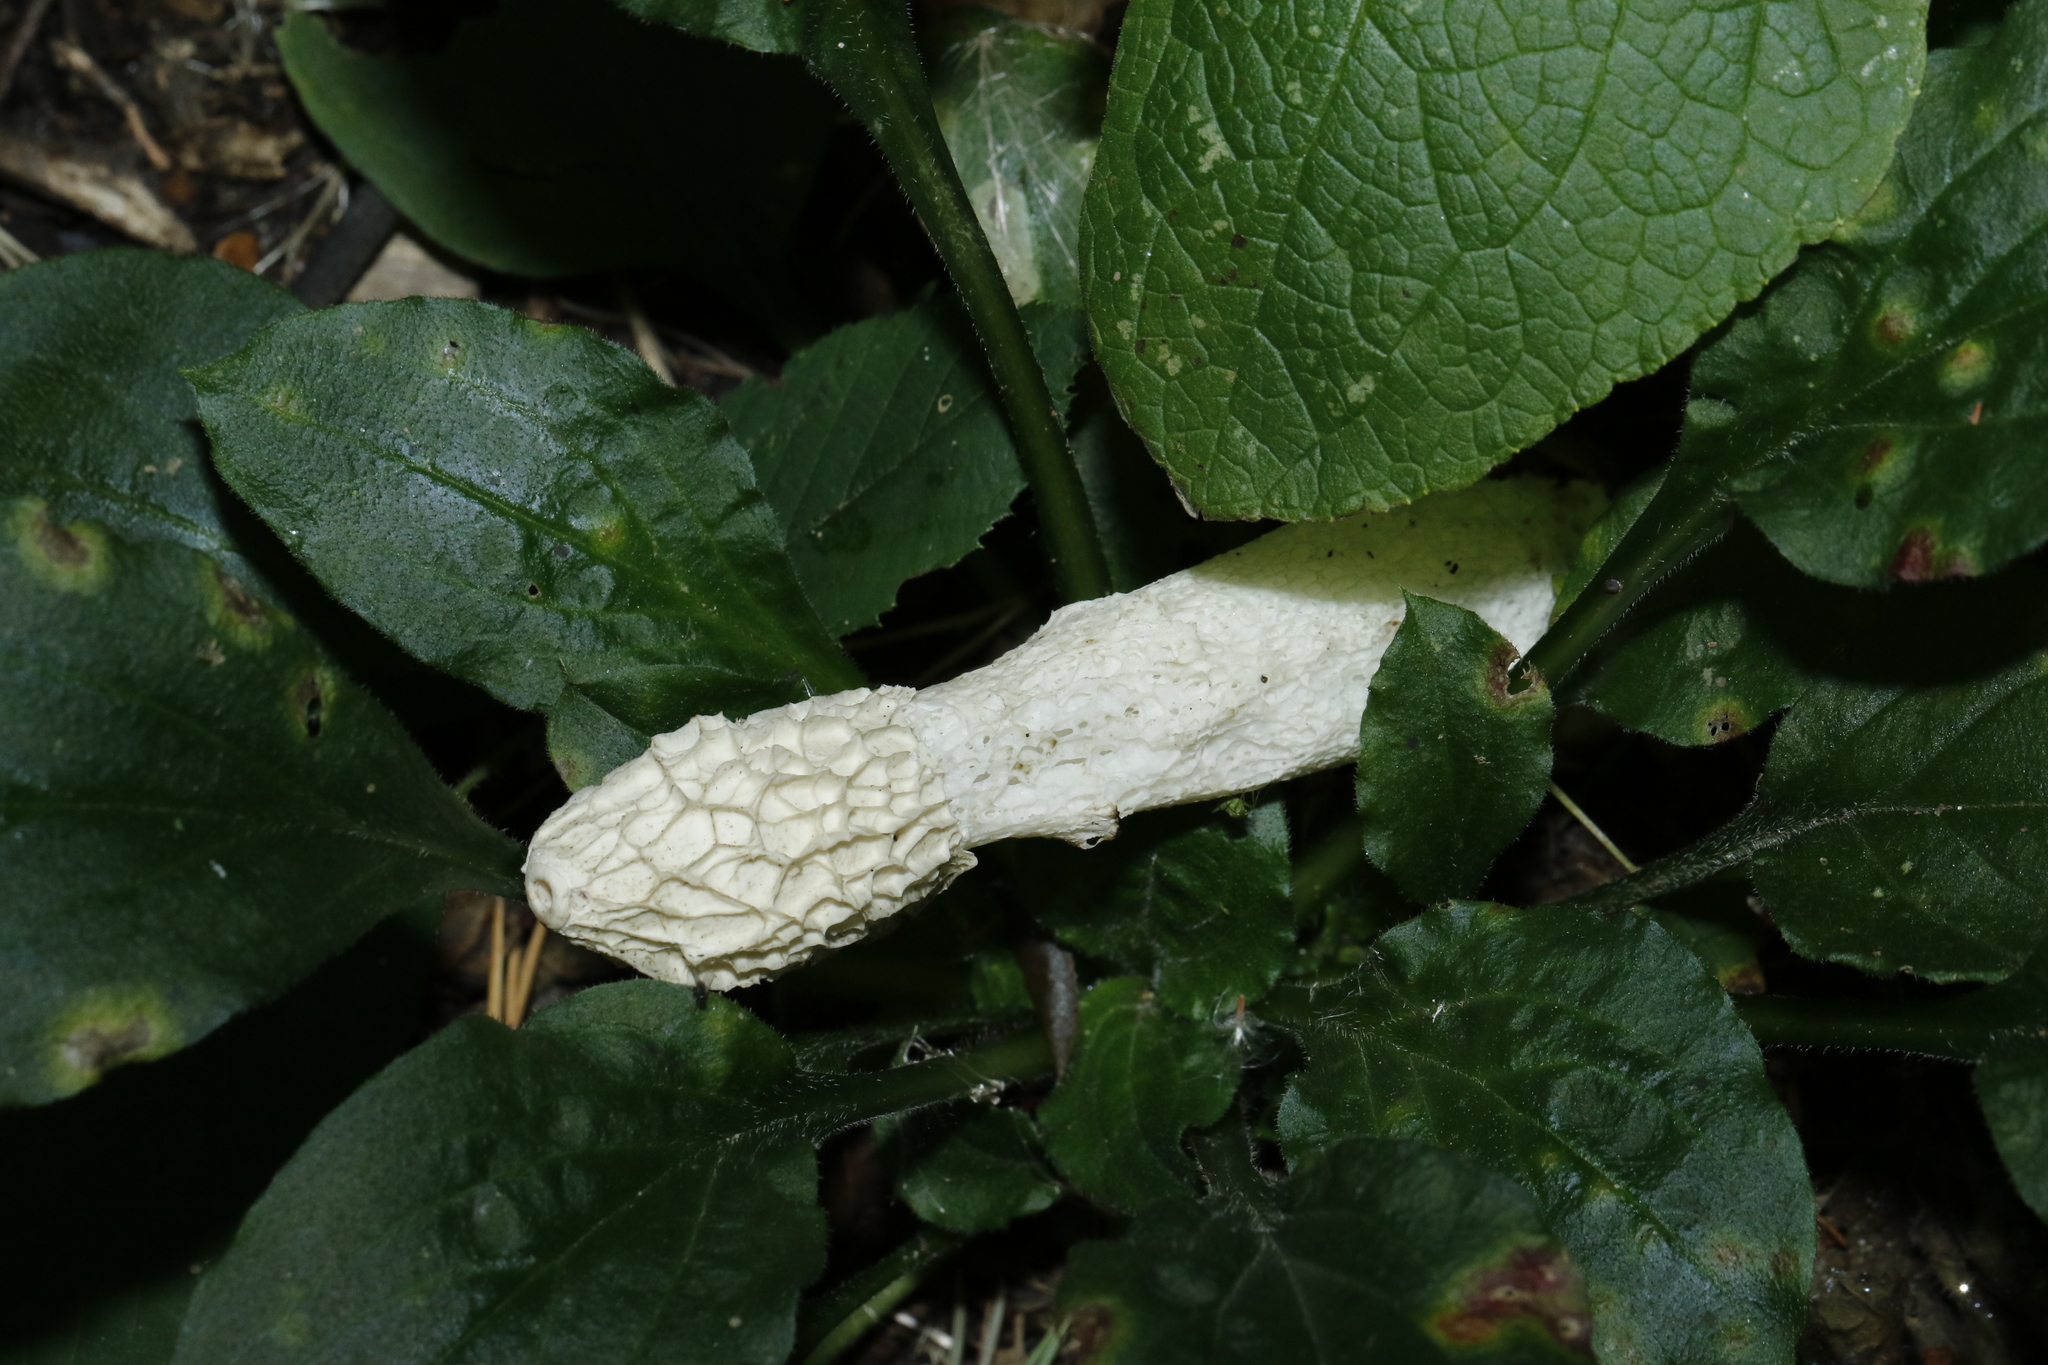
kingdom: Fungi
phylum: Basidiomycota
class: Agaricomycetes
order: Phallales
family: Phallaceae
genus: Phallus
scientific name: Phallus impudicus
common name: Common stinkhorn
